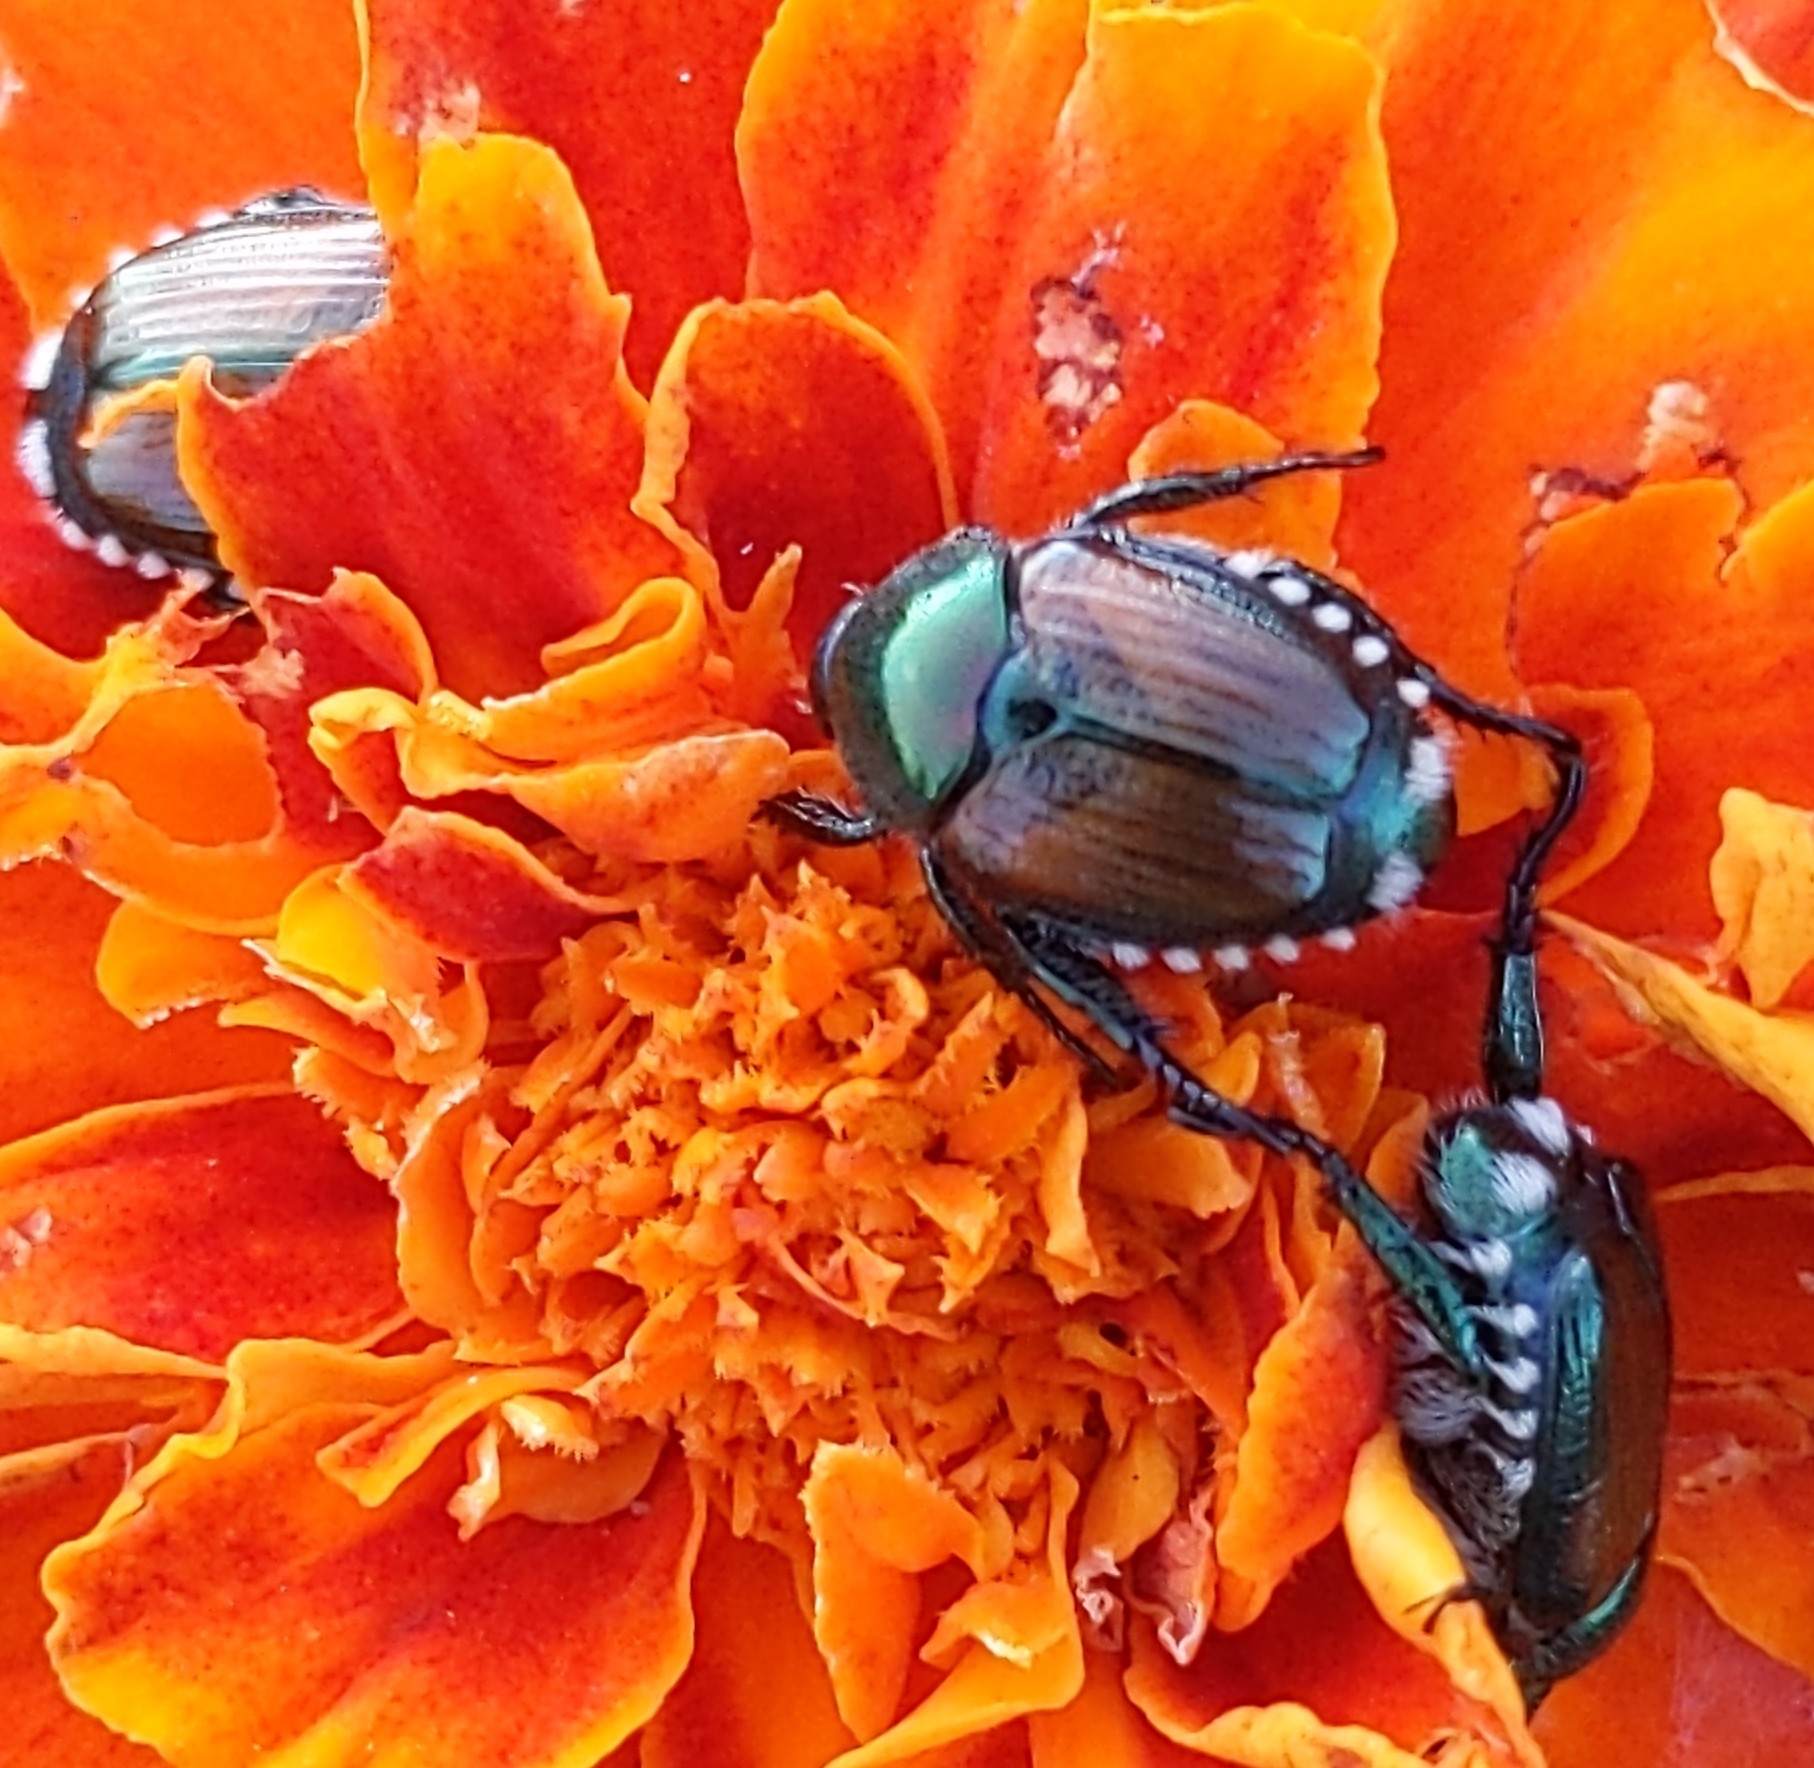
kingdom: Animalia
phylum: Arthropoda
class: Insecta
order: Coleoptera
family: Scarabaeidae
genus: Popillia
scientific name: Popillia japonica
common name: Japanese beetle
